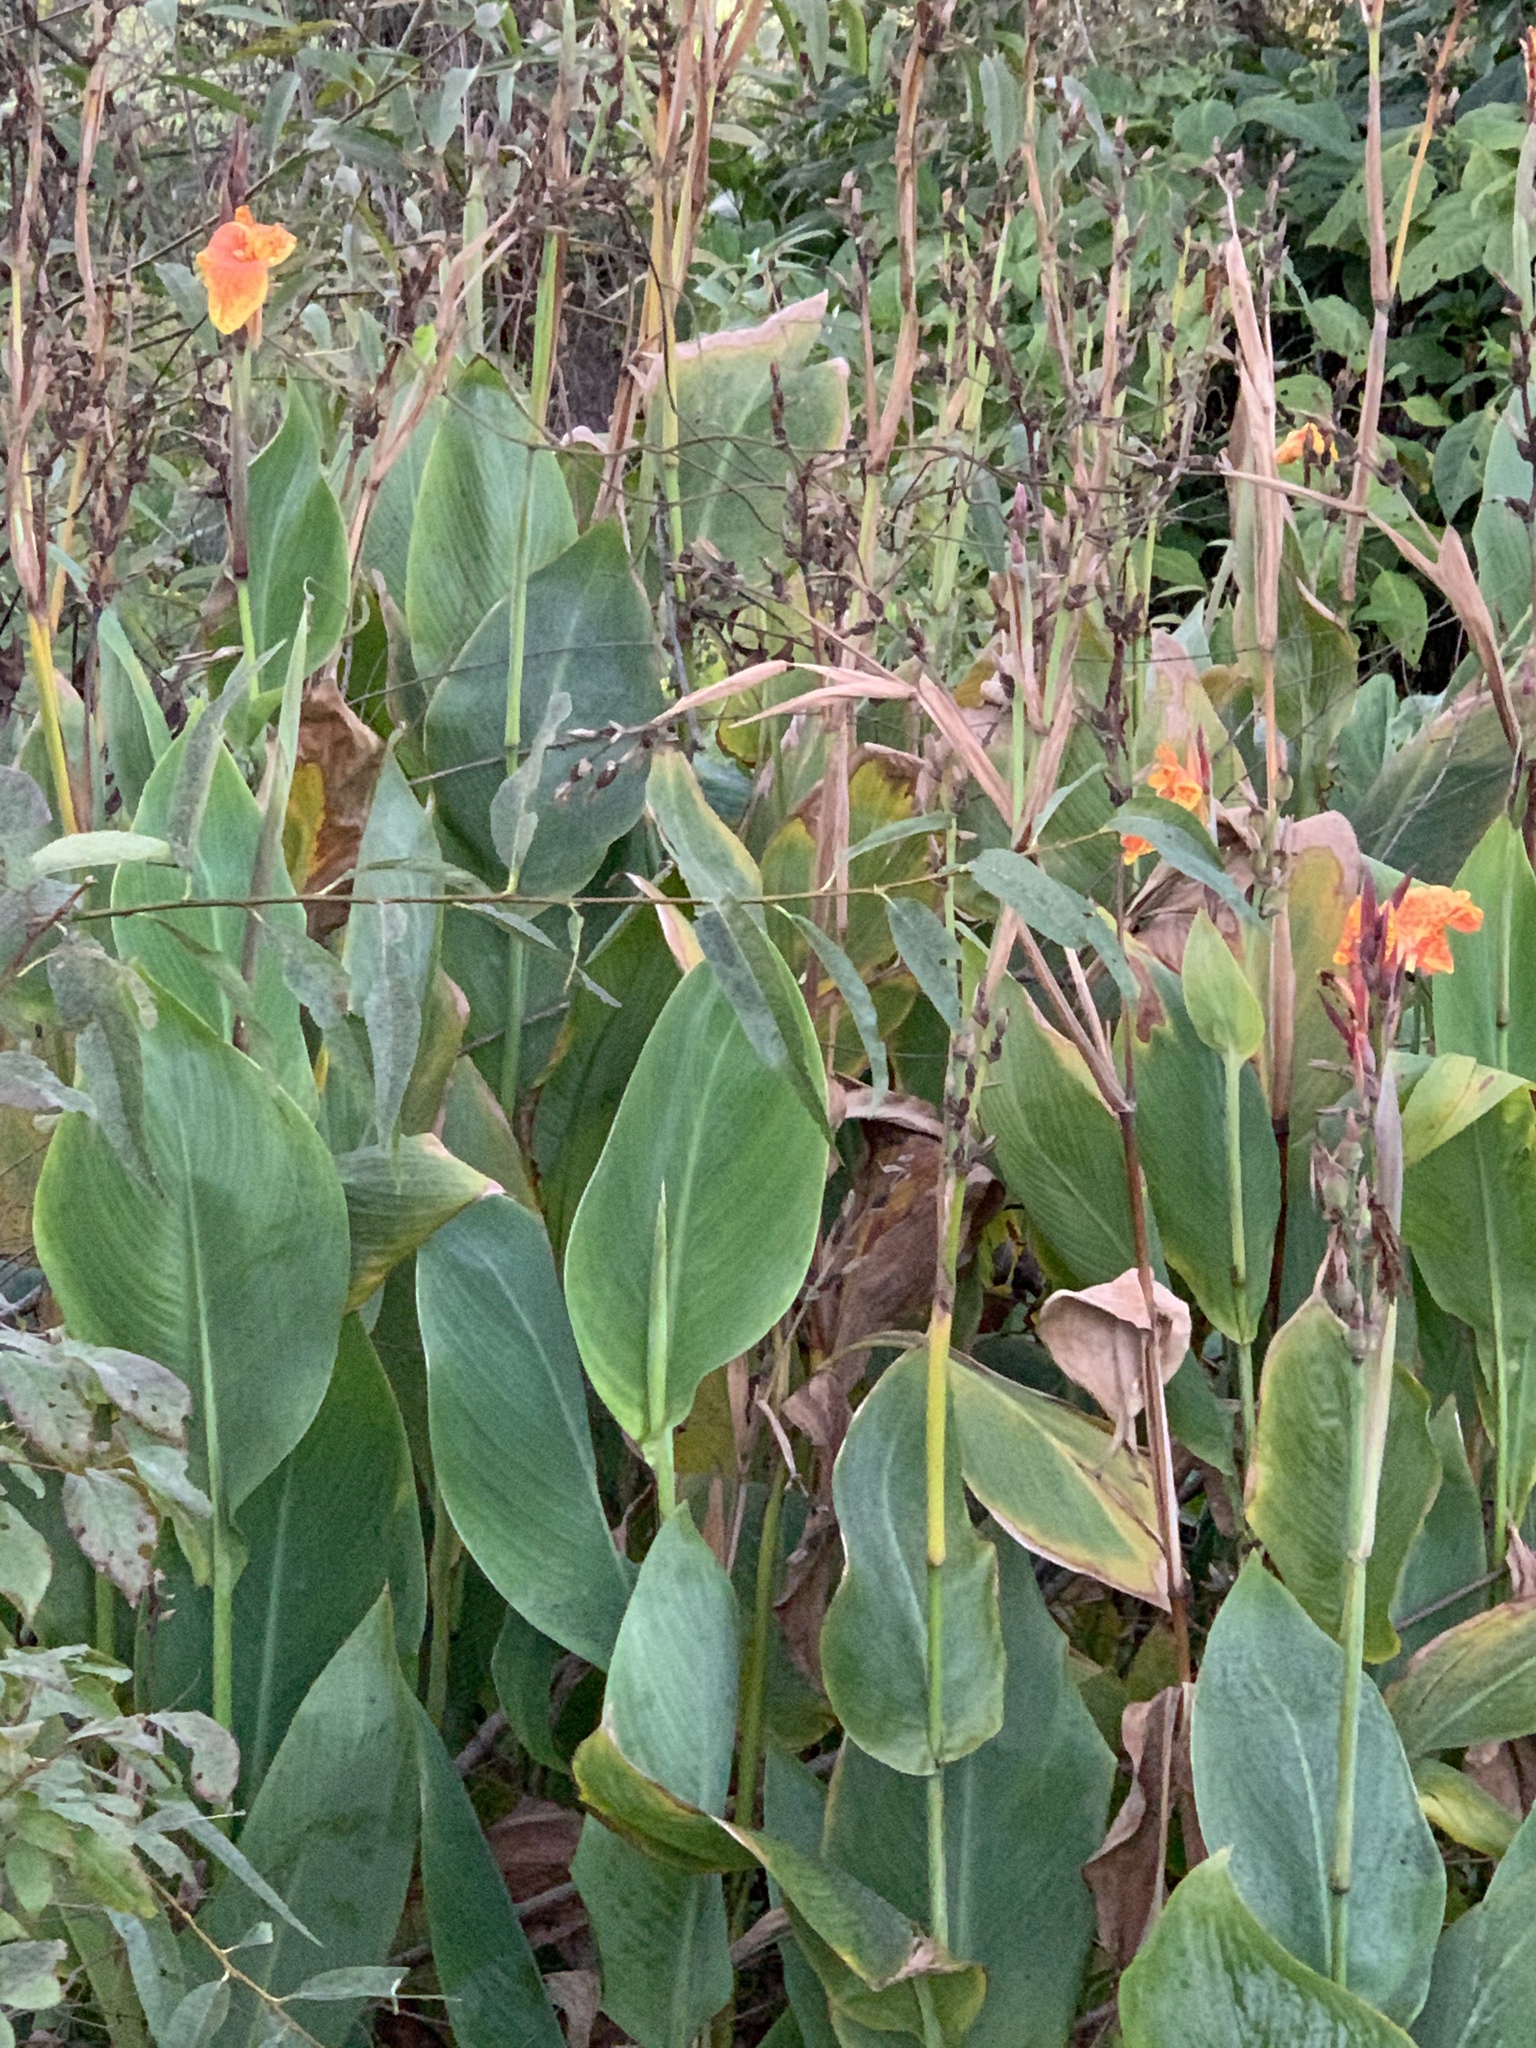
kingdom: Plantae
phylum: Tracheophyta
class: Liliopsida
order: Zingiberales
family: Cannaceae
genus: Canna
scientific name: Canna hybrida
